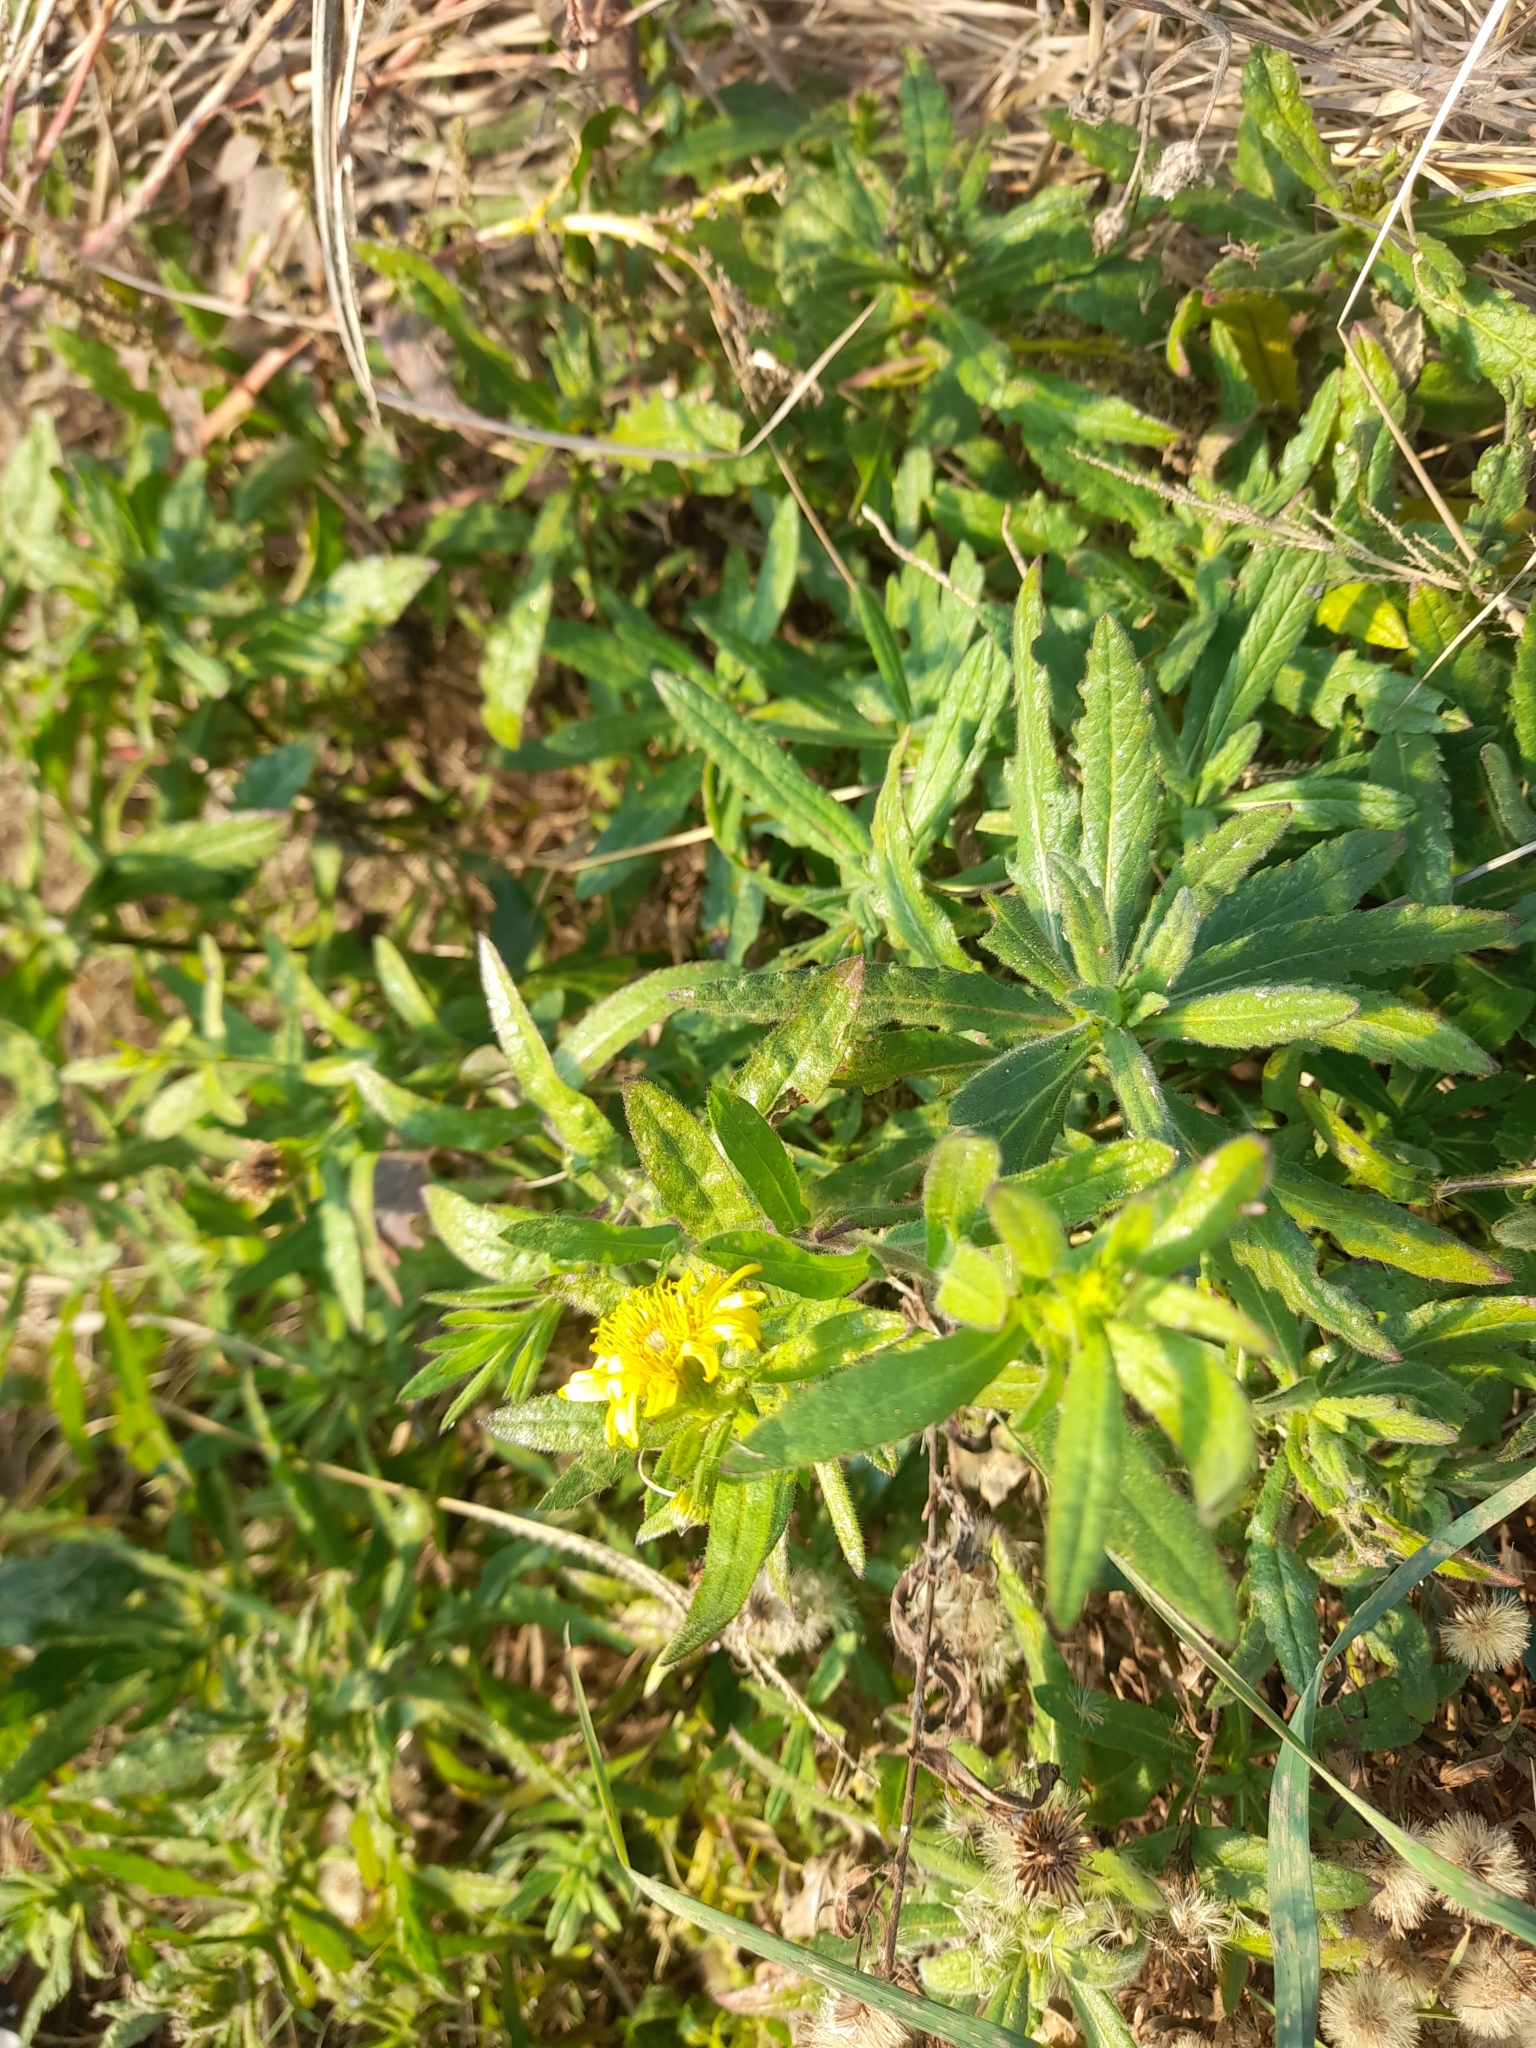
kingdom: Plantae
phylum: Tracheophyta
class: Magnoliopsida
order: Asterales
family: Asteraceae
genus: Dittrichia
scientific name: Dittrichia viscosa
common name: Woody fleabane
